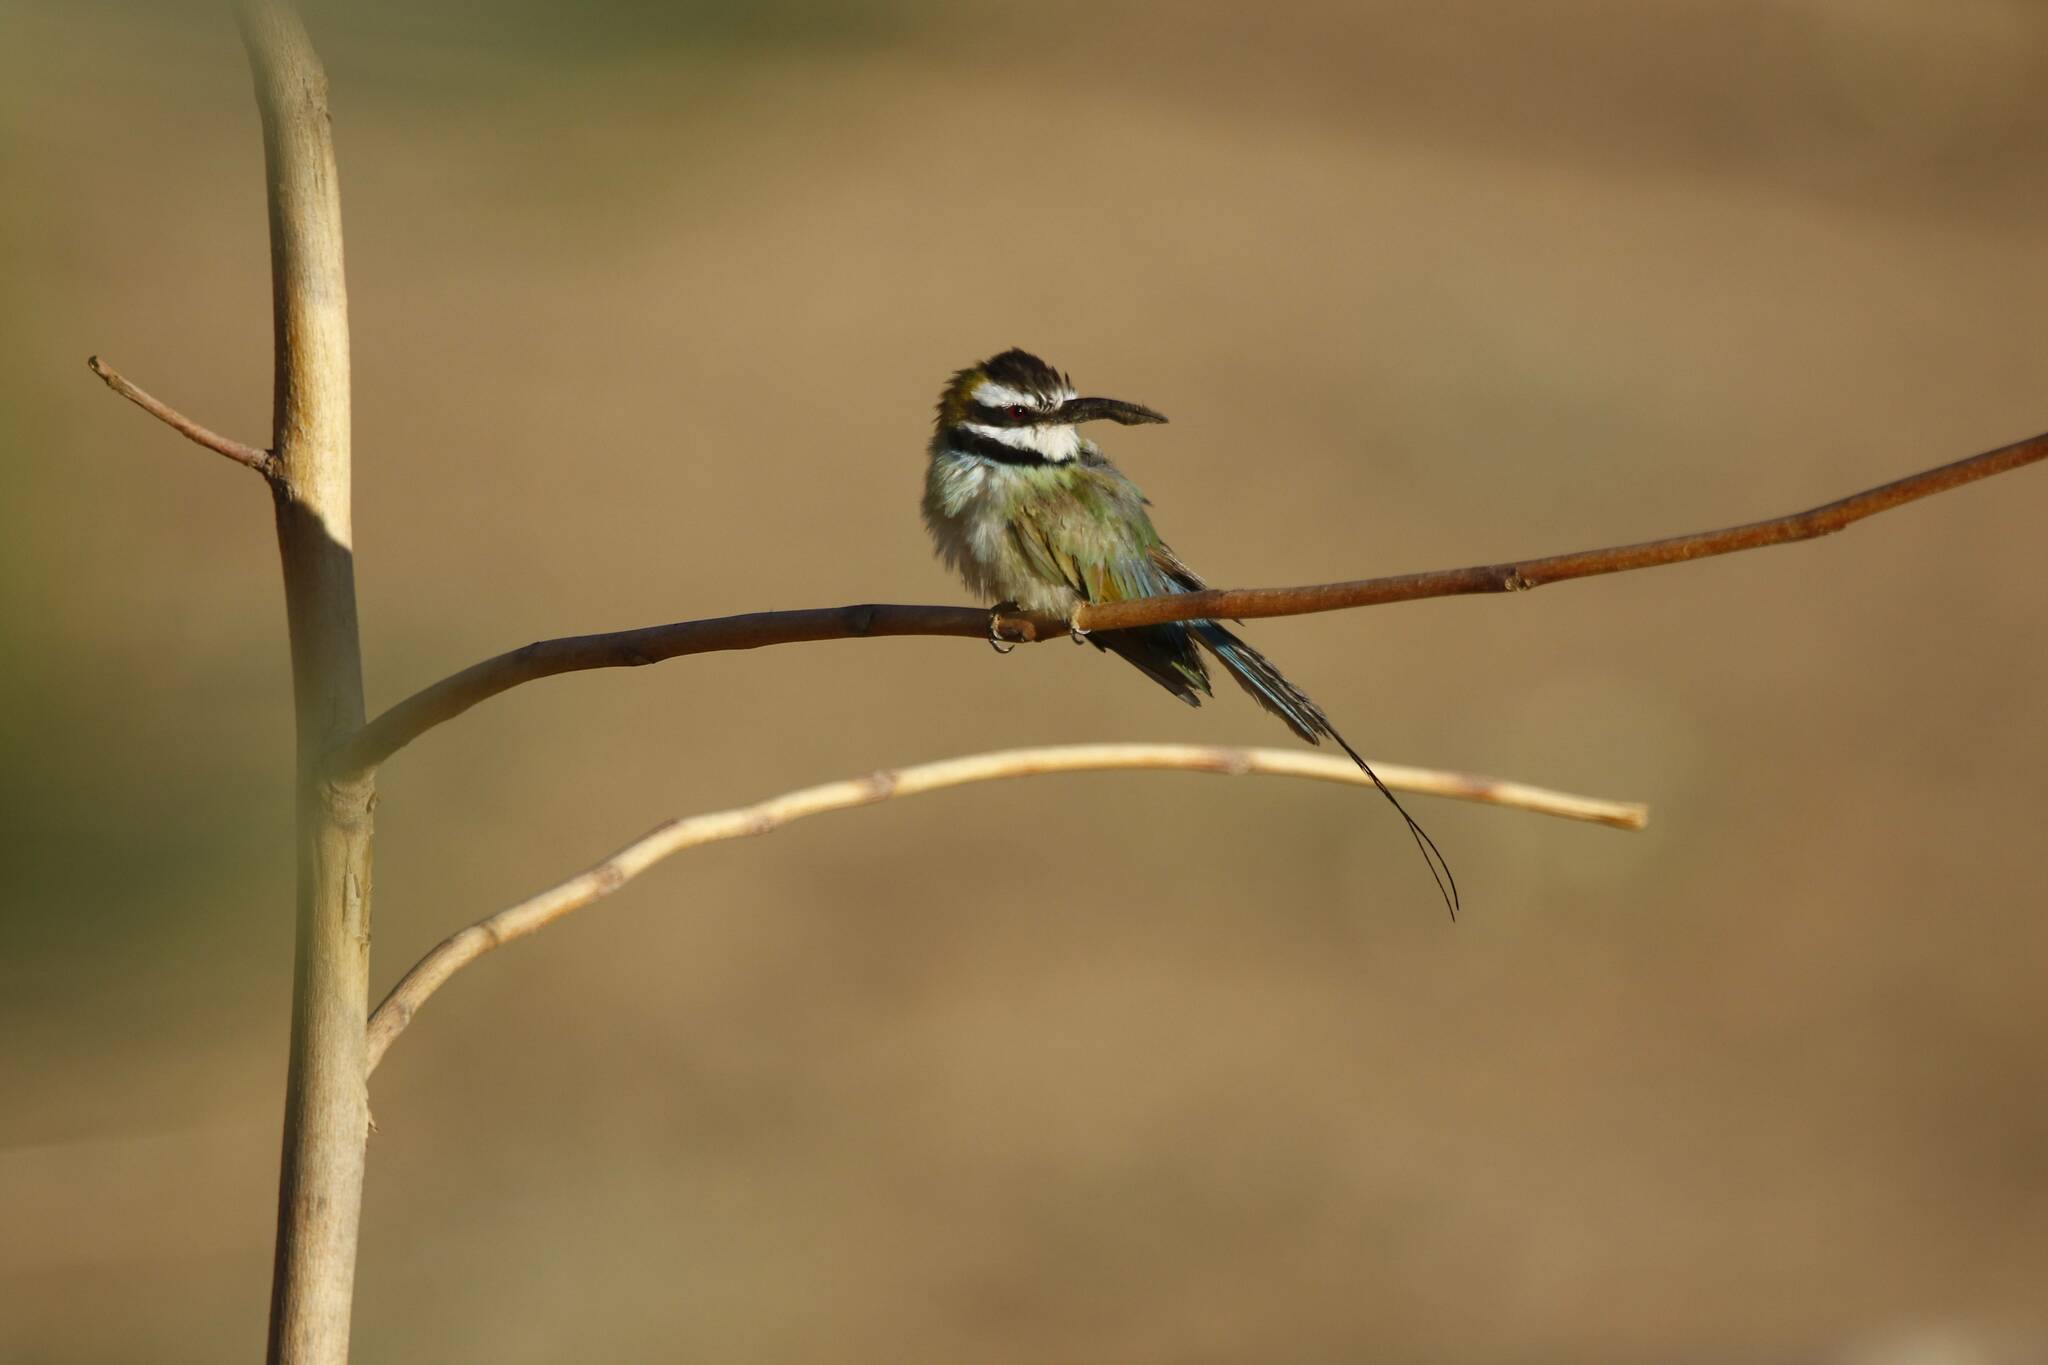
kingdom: Animalia
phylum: Chordata
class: Aves
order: Coraciiformes
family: Meropidae
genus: Merops
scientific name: Merops albicollis
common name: White-throated bee-eater
